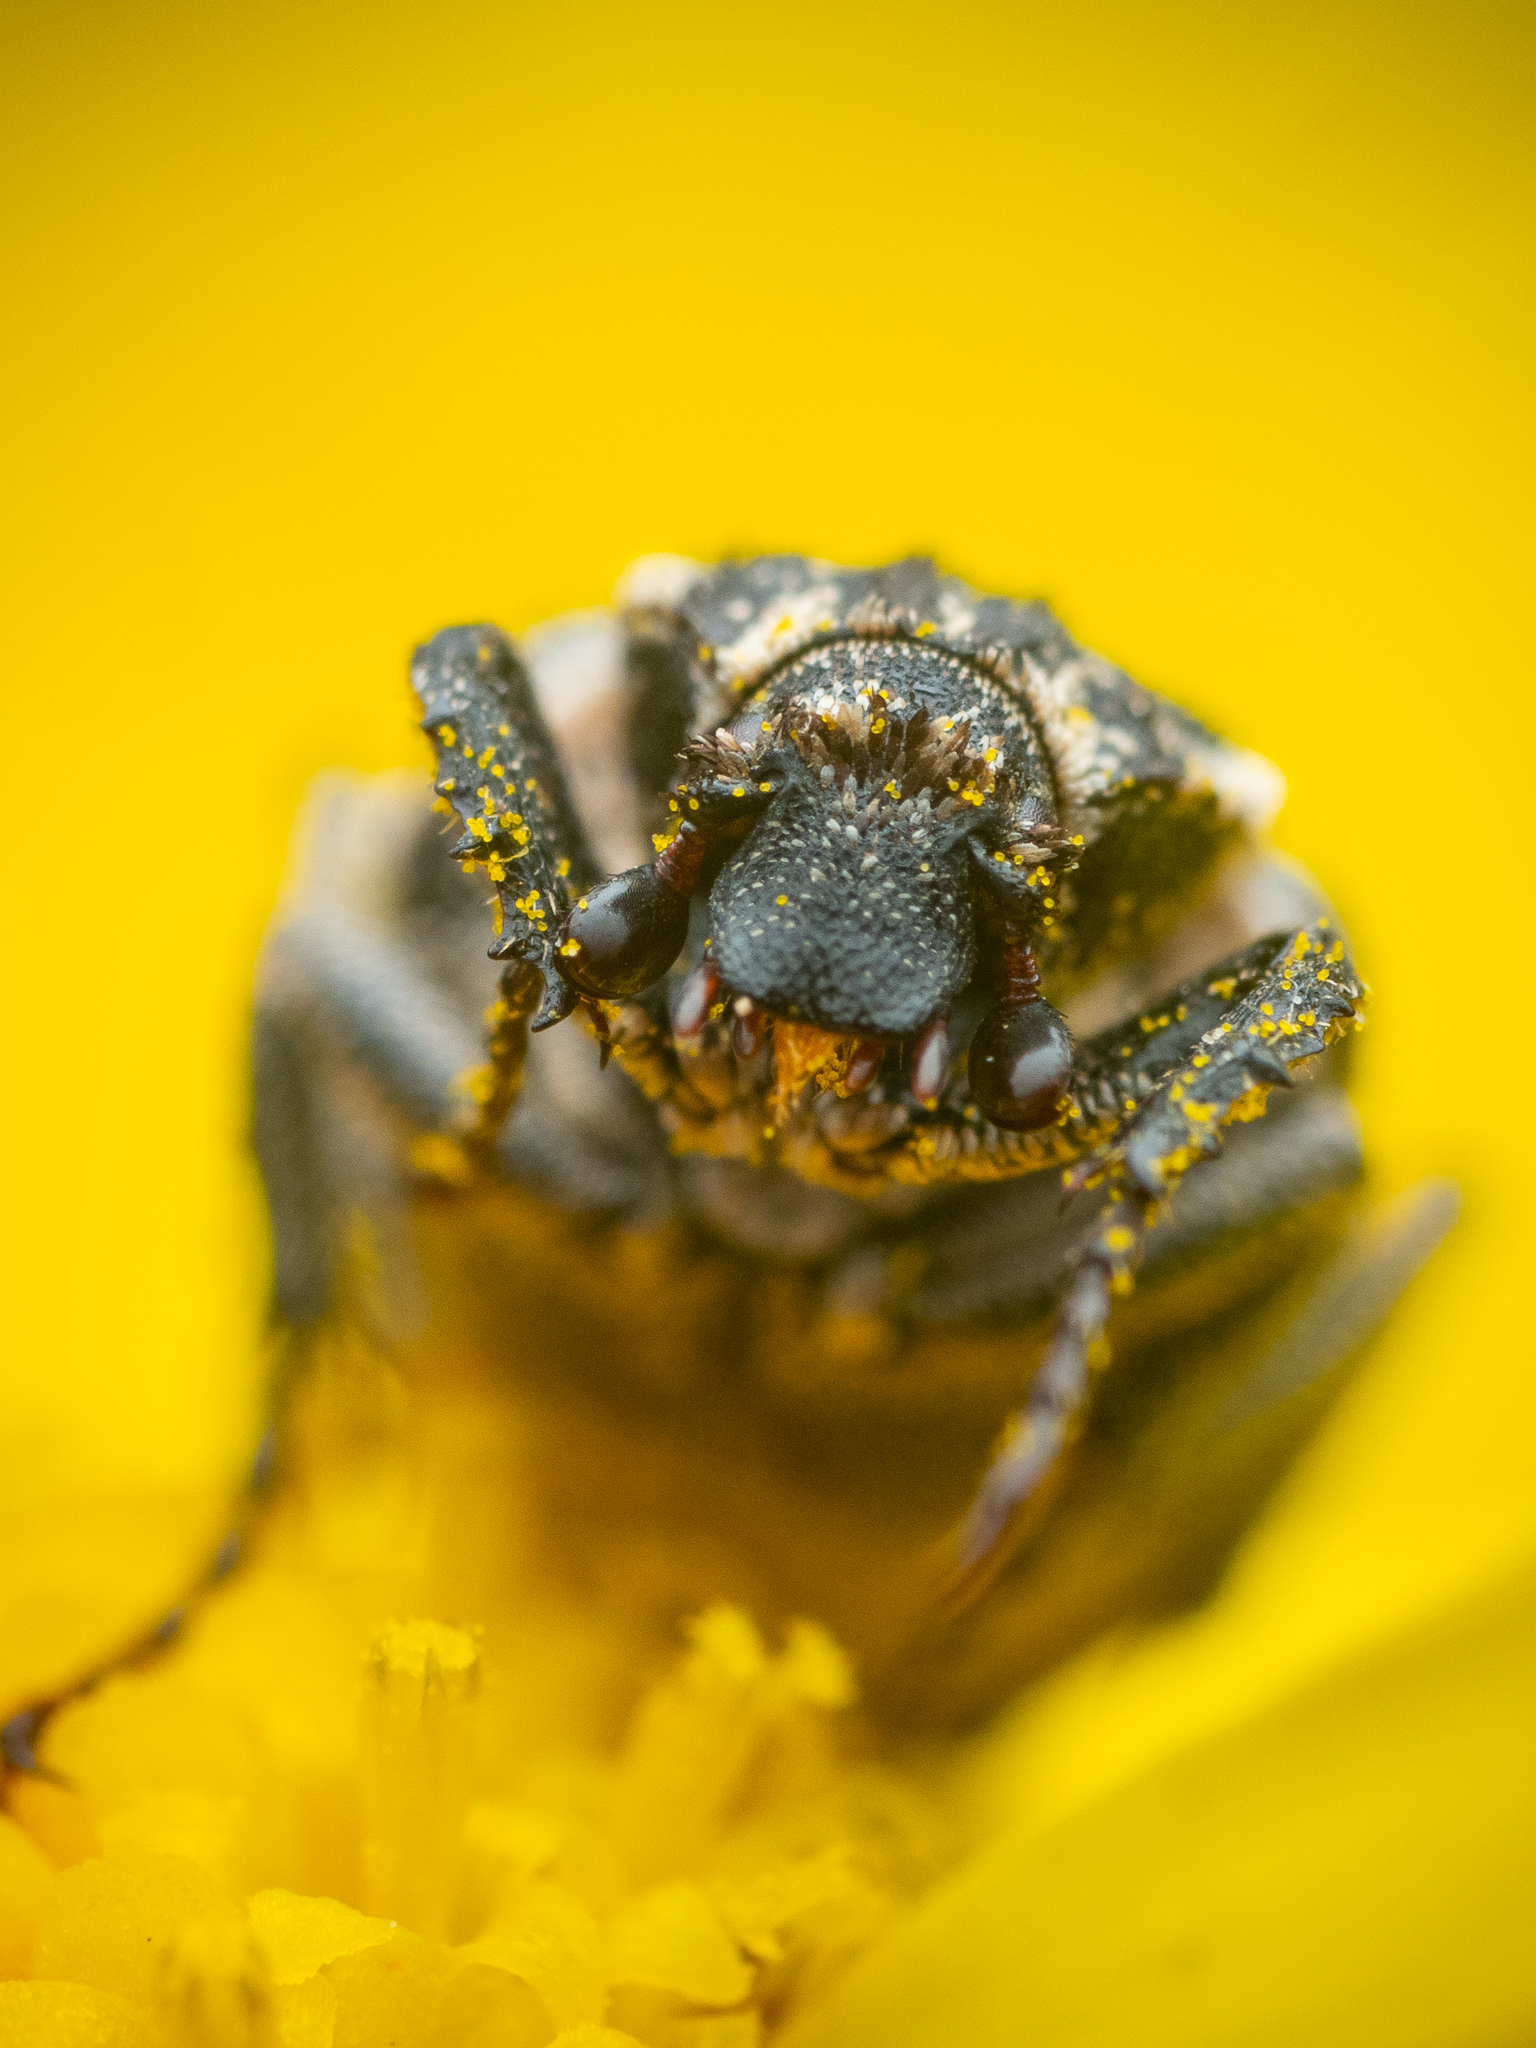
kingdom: Animalia
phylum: Arthropoda
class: Insecta
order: Coleoptera
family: Scarabaeidae
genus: Valgus
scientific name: Valgus hemipterus
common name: Bug flower chafer
